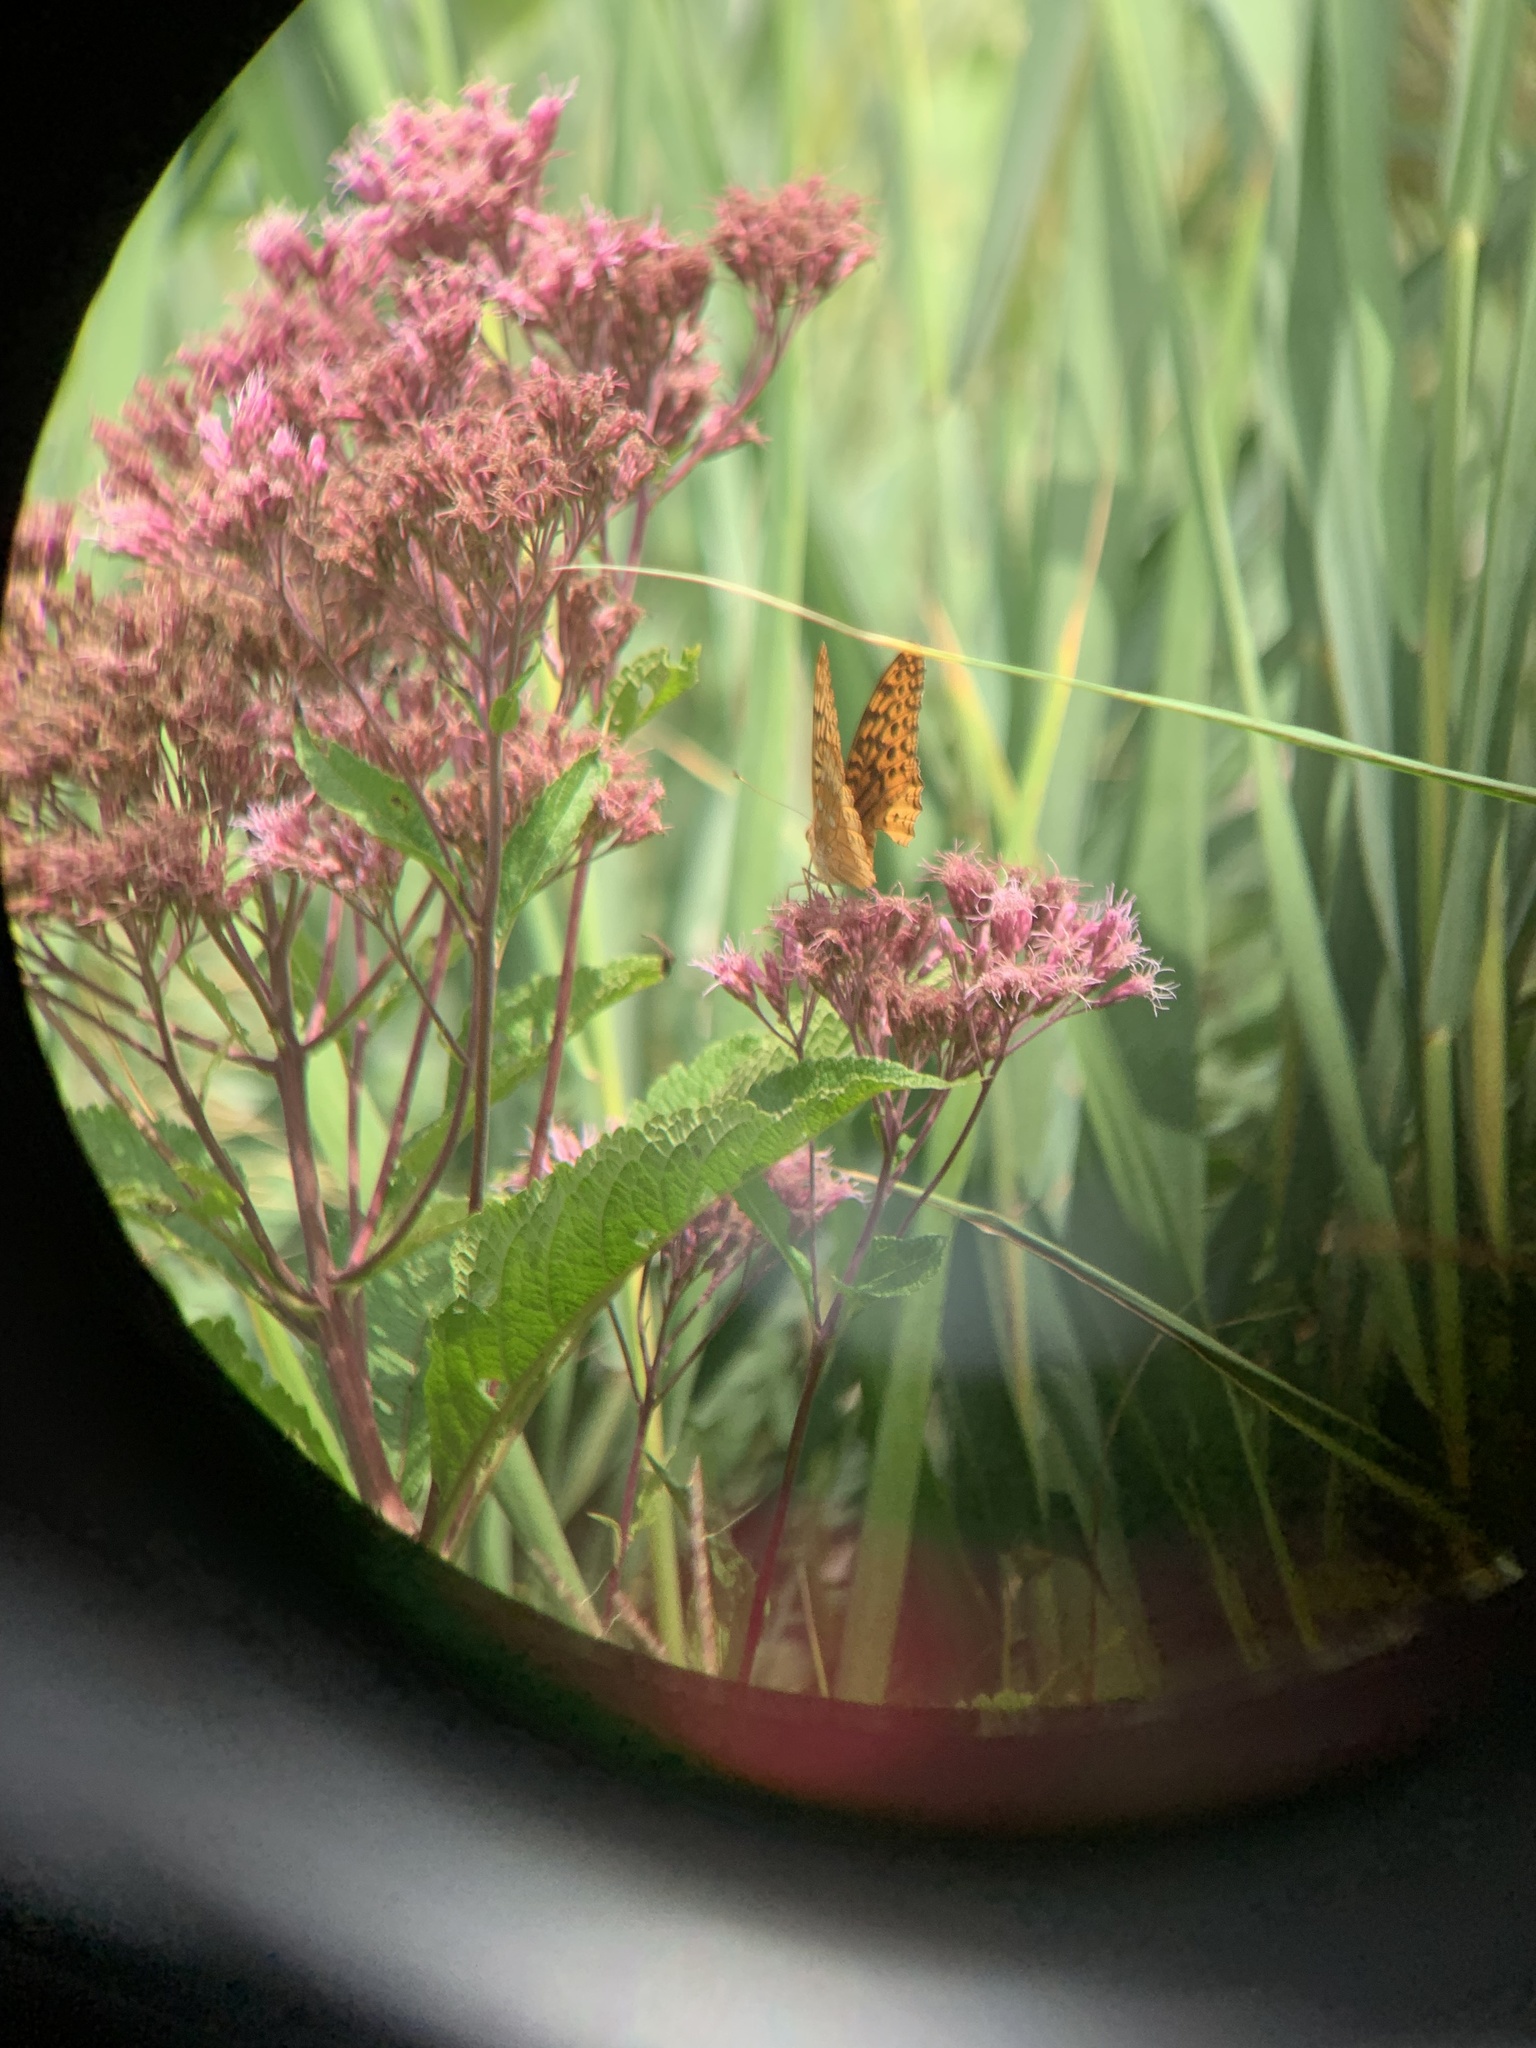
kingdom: Animalia
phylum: Arthropoda
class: Insecta
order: Lepidoptera
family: Nymphalidae
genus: Speyeria
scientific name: Speyeria cybele
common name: Great spangled fritillary
